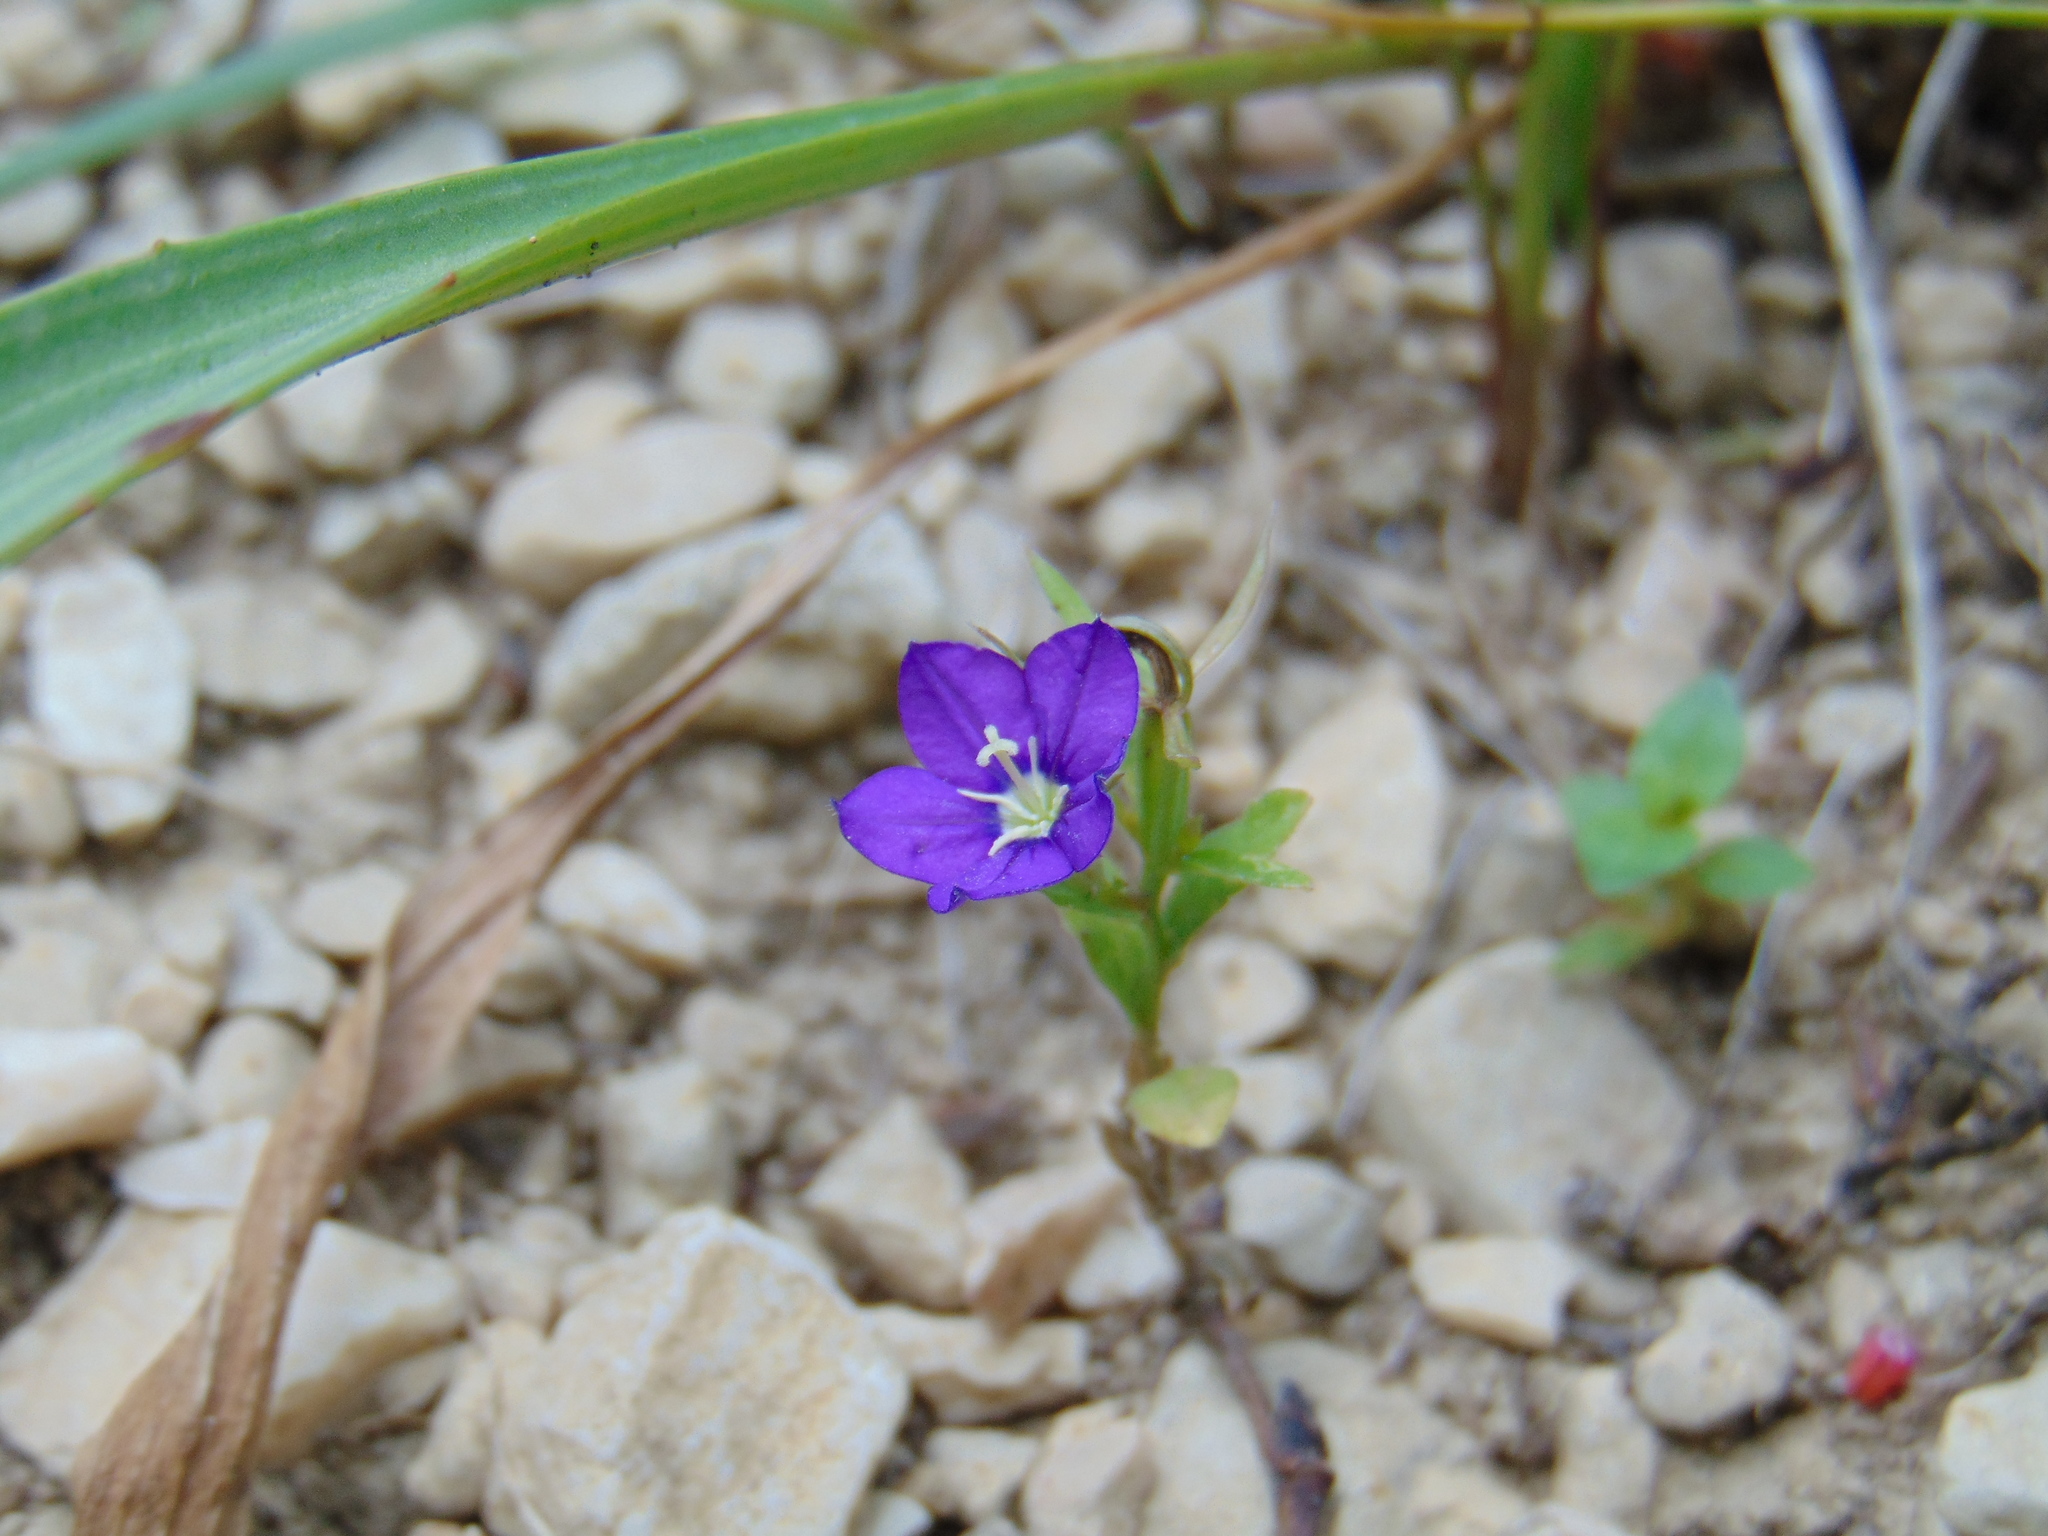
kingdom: Plantae
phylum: Tracheophyta
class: Magnoliopsida
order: Asterales
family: Campanulaceae
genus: Legousia
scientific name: Legousia speculum-veneris
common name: Large venus's-looking-glass
